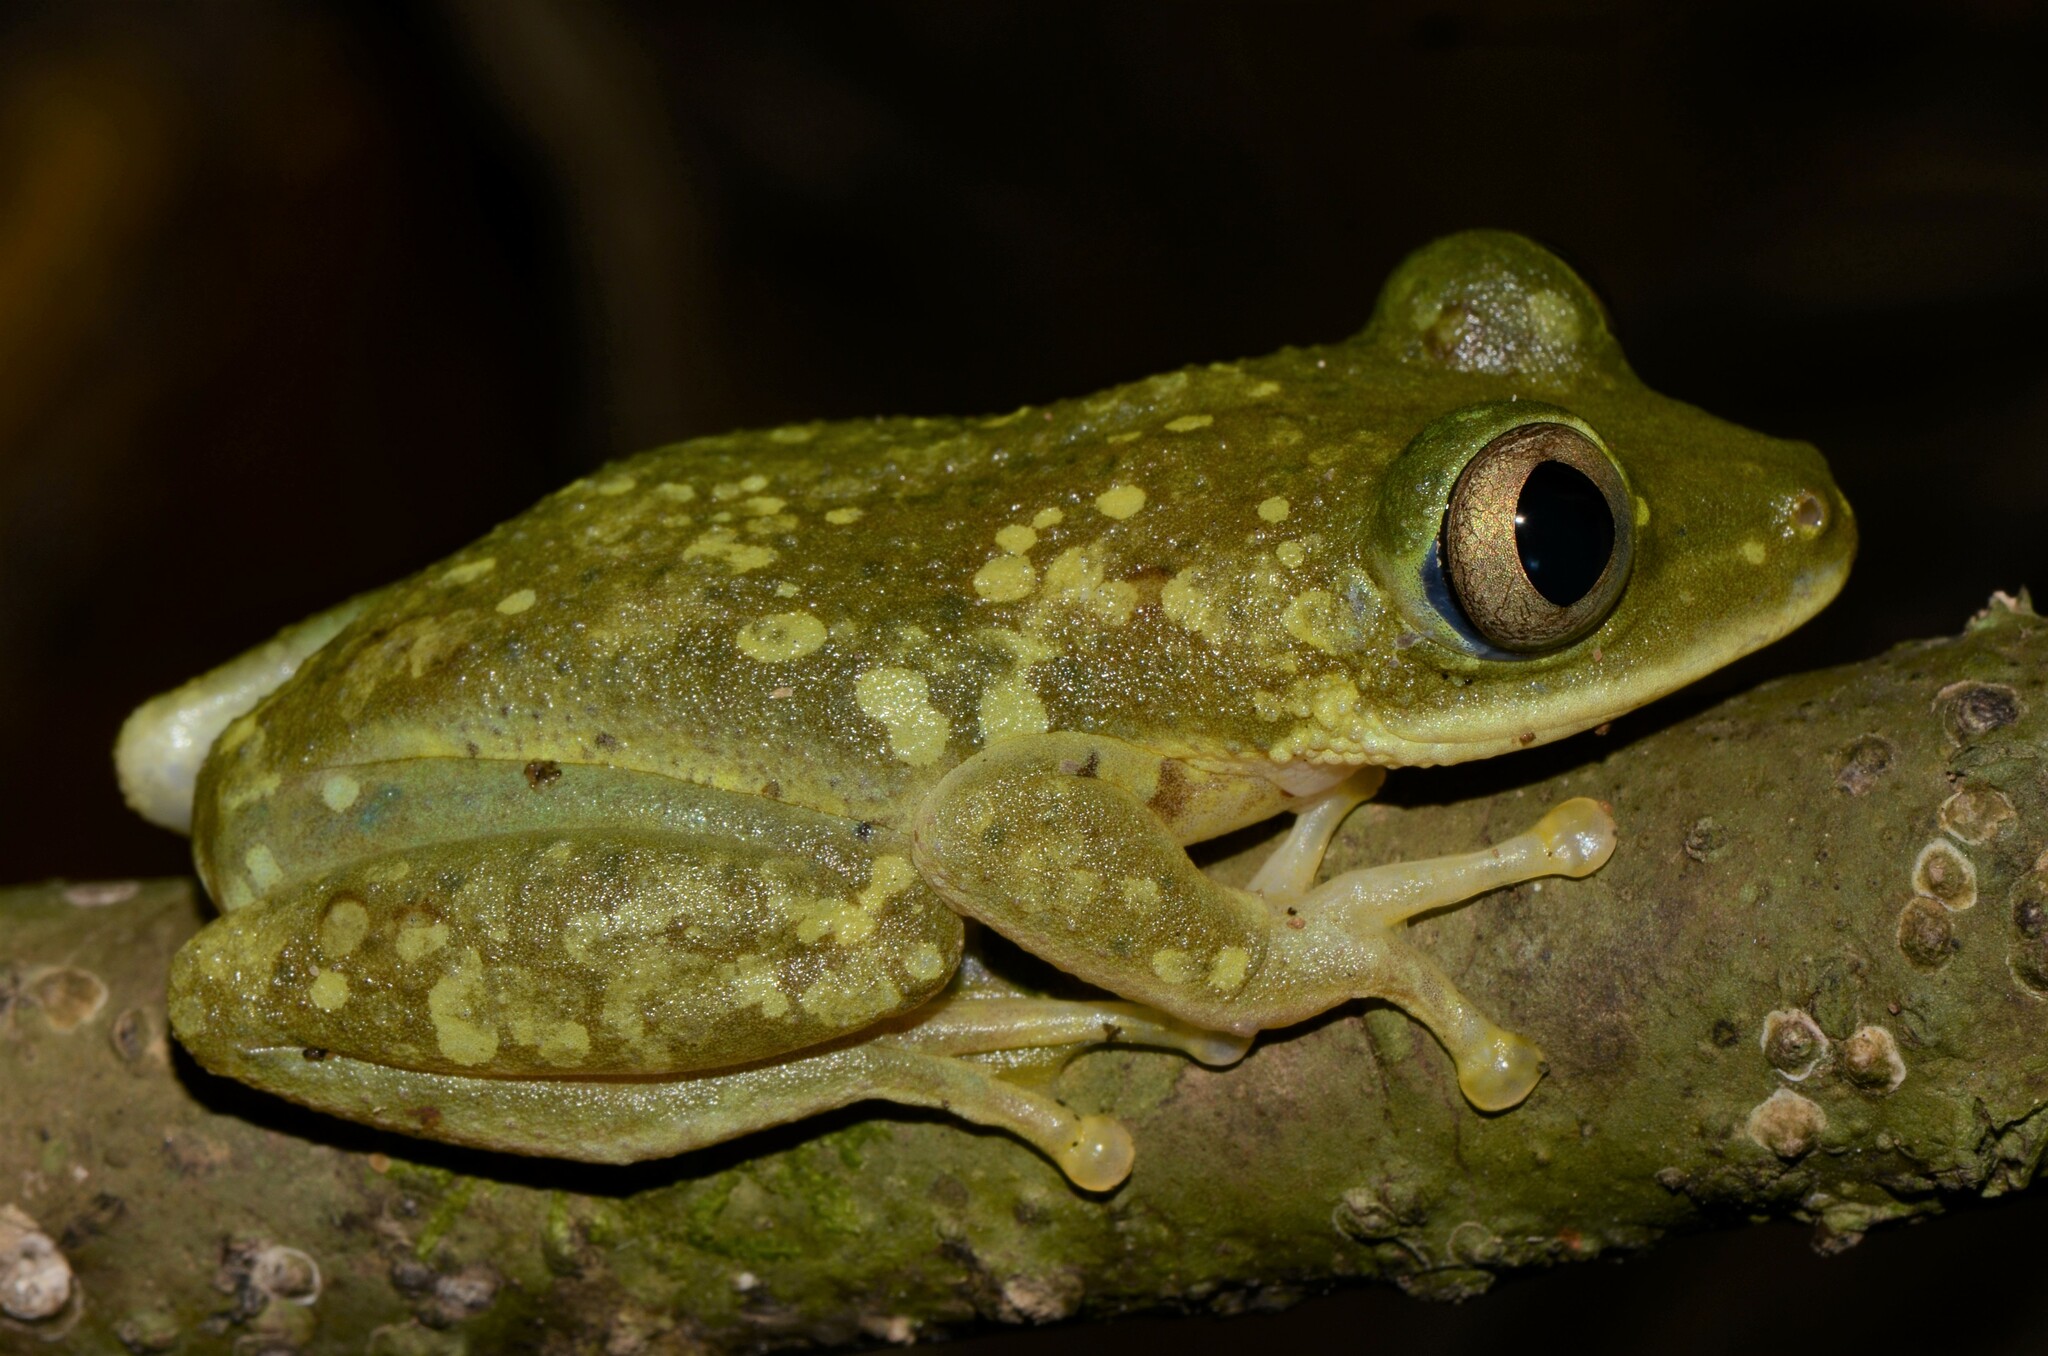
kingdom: Animalia
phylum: Chordata
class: Amphibia
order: Anura
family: Hyperoliidae
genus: Tachycnemis
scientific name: Tachycnemis seychellensis
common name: Seychelles treefrog
